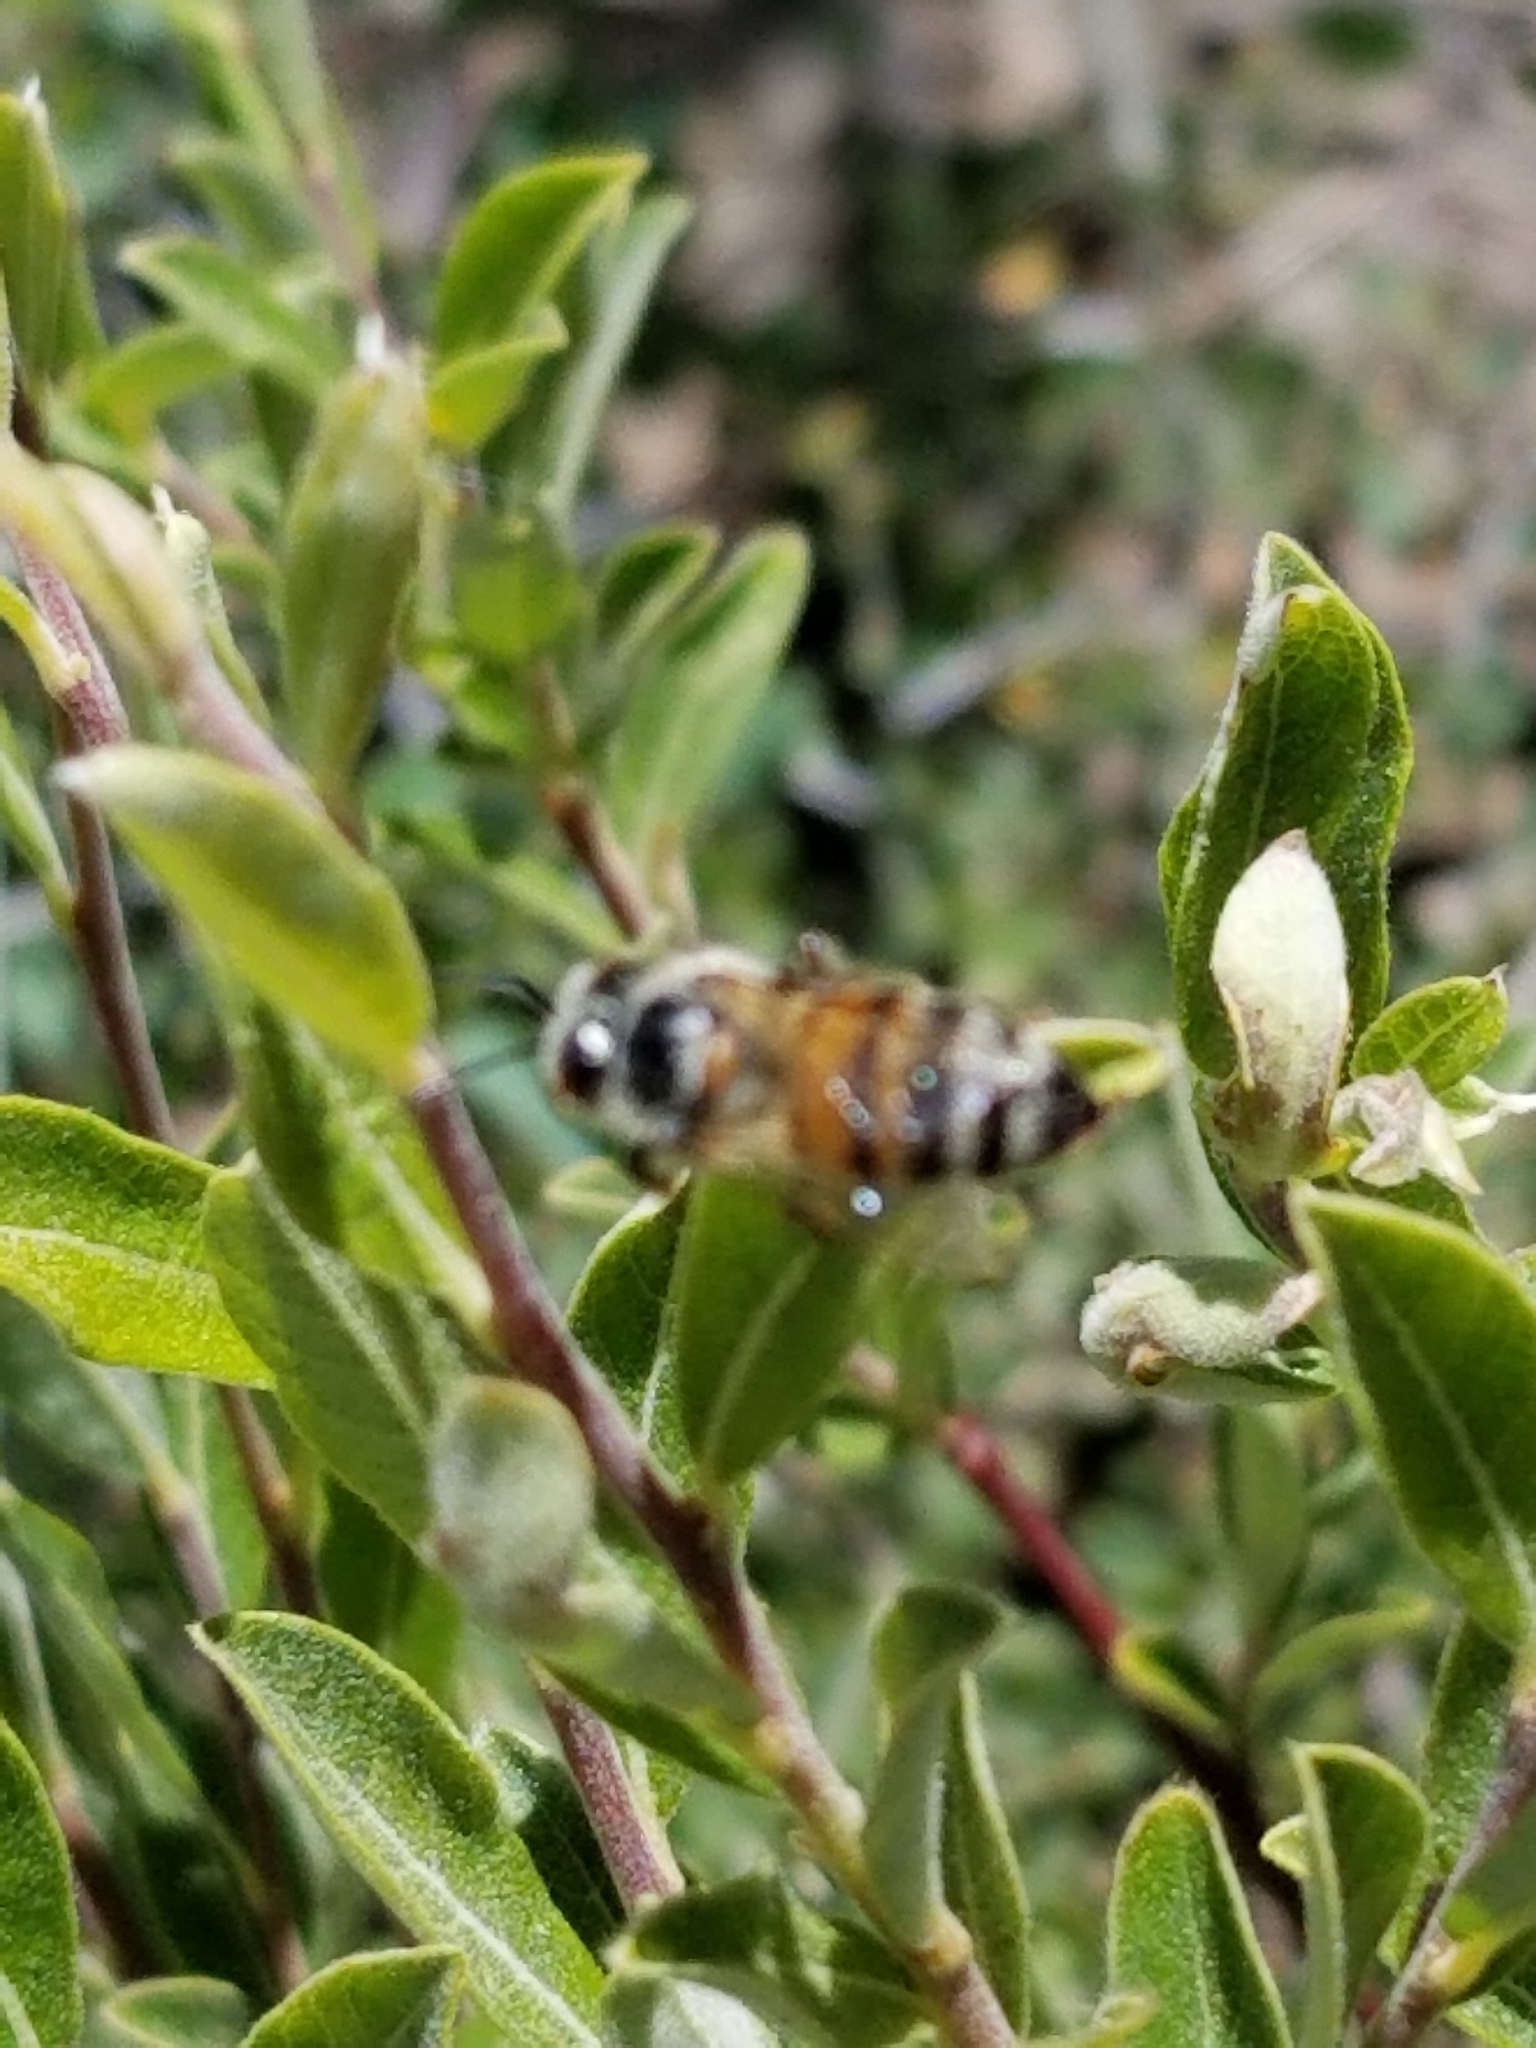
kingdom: Animalia
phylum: Arthropoda
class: Insecta
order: Hymenoptera
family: Apidae
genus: Apis
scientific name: Apis mellifera
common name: Honey bee
